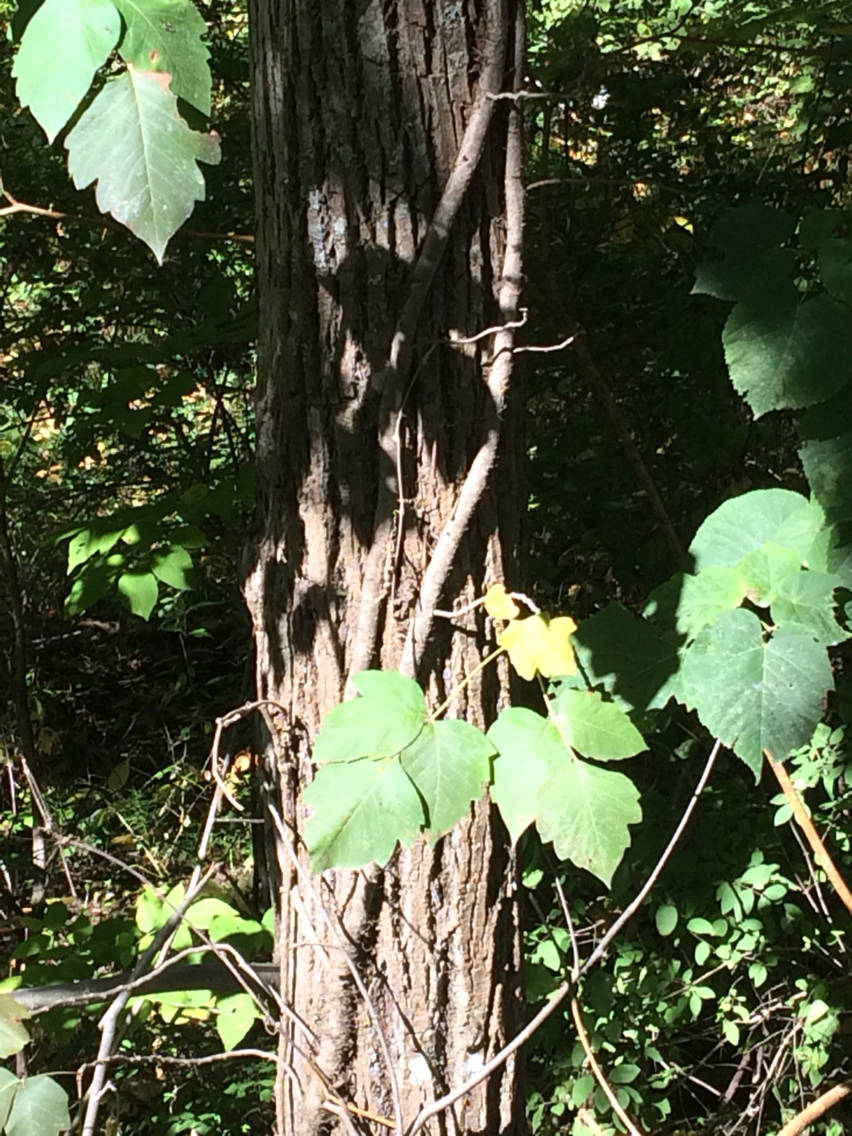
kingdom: Plantae
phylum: Tracheophyta
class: Magnoliopsida
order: Sapindales
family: Anacardiaceae
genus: Toxicodendron
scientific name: Toxicodendron radicans
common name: Poison ivy
